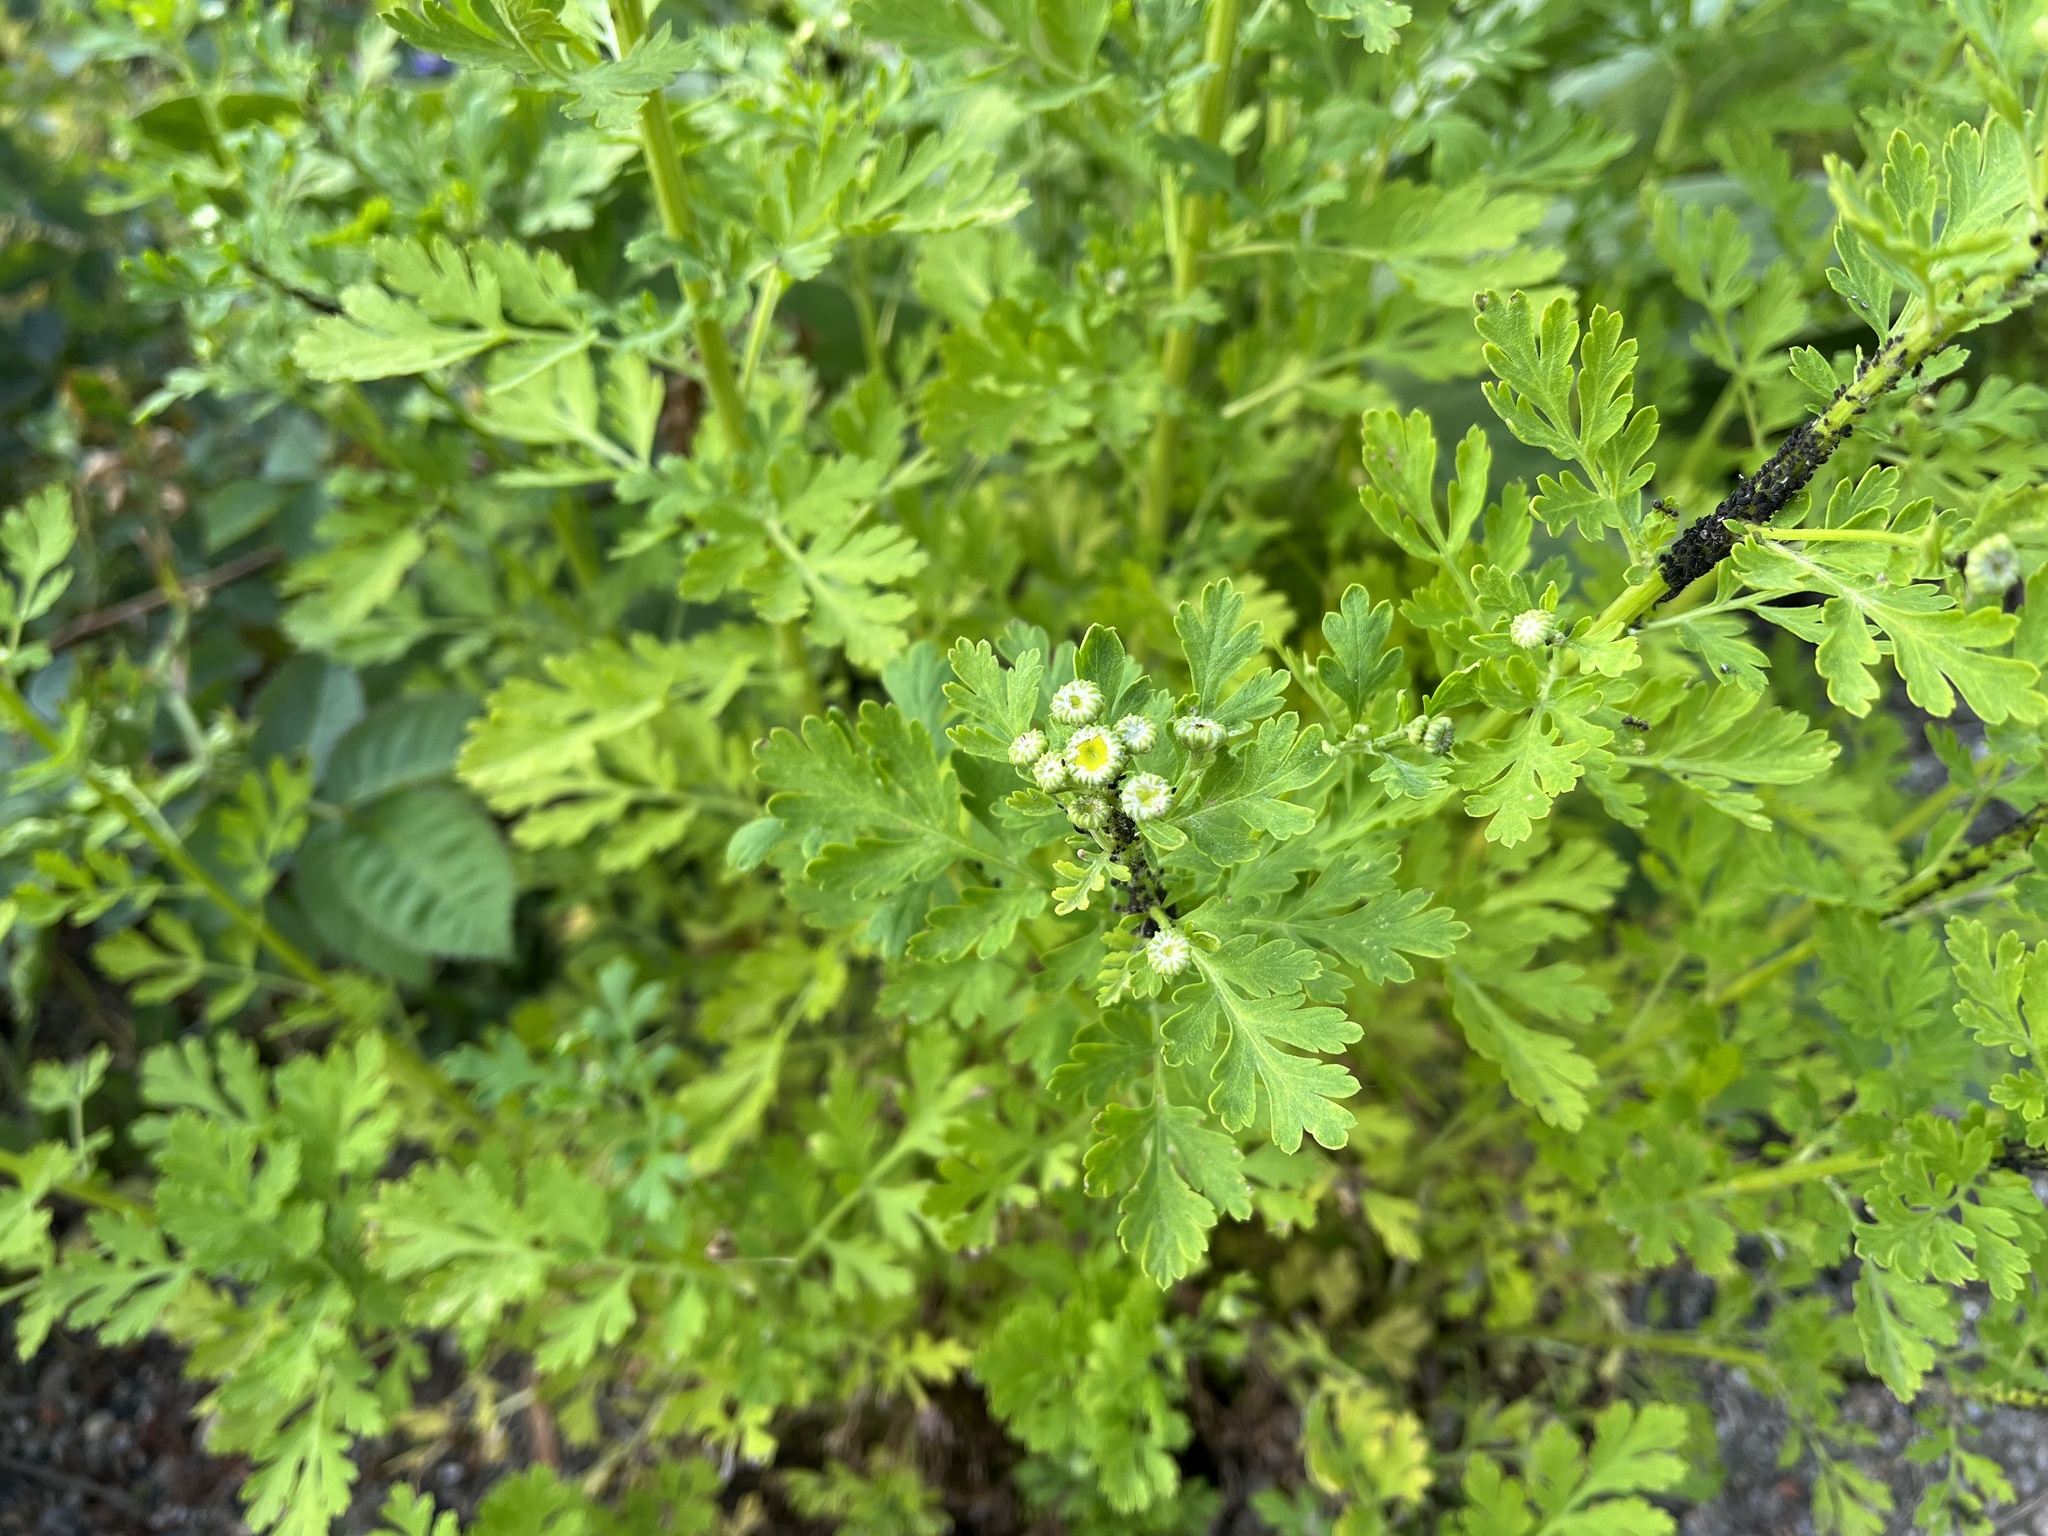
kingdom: Plantae
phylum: Tracheophyta
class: Magnoliopsida
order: Asterales
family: Asteraceae
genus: Tanacetum
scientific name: Tanacetum parthenium
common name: Feverfew
